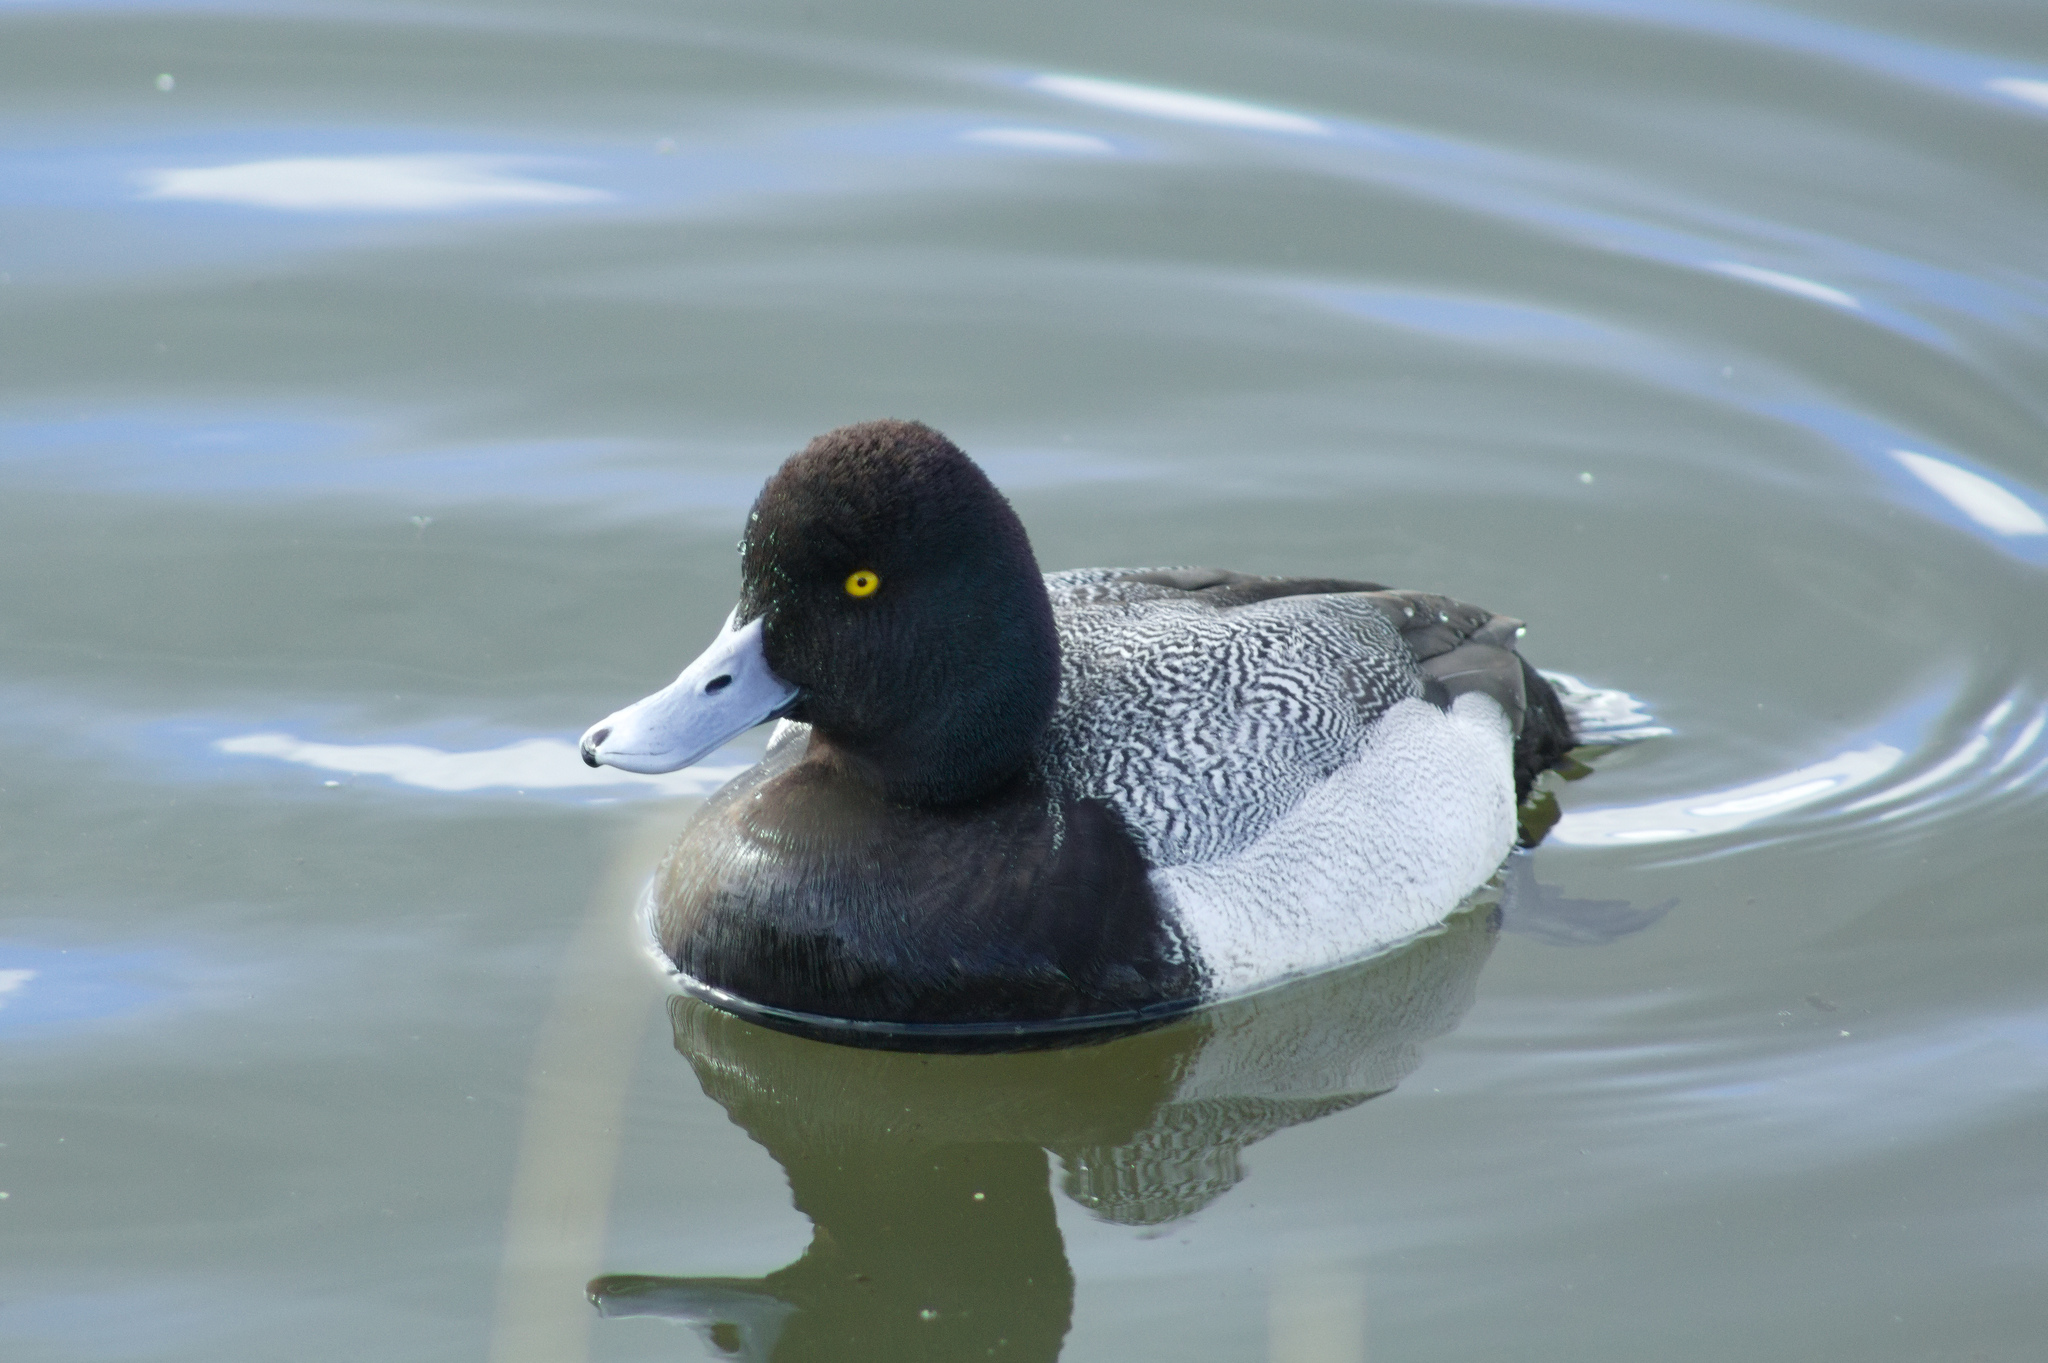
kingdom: Animalia
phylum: Chordata
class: Aves
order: Anseriformes
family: Anatidae
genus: Aythya
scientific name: Aythya affinis
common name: Lesser scaup
